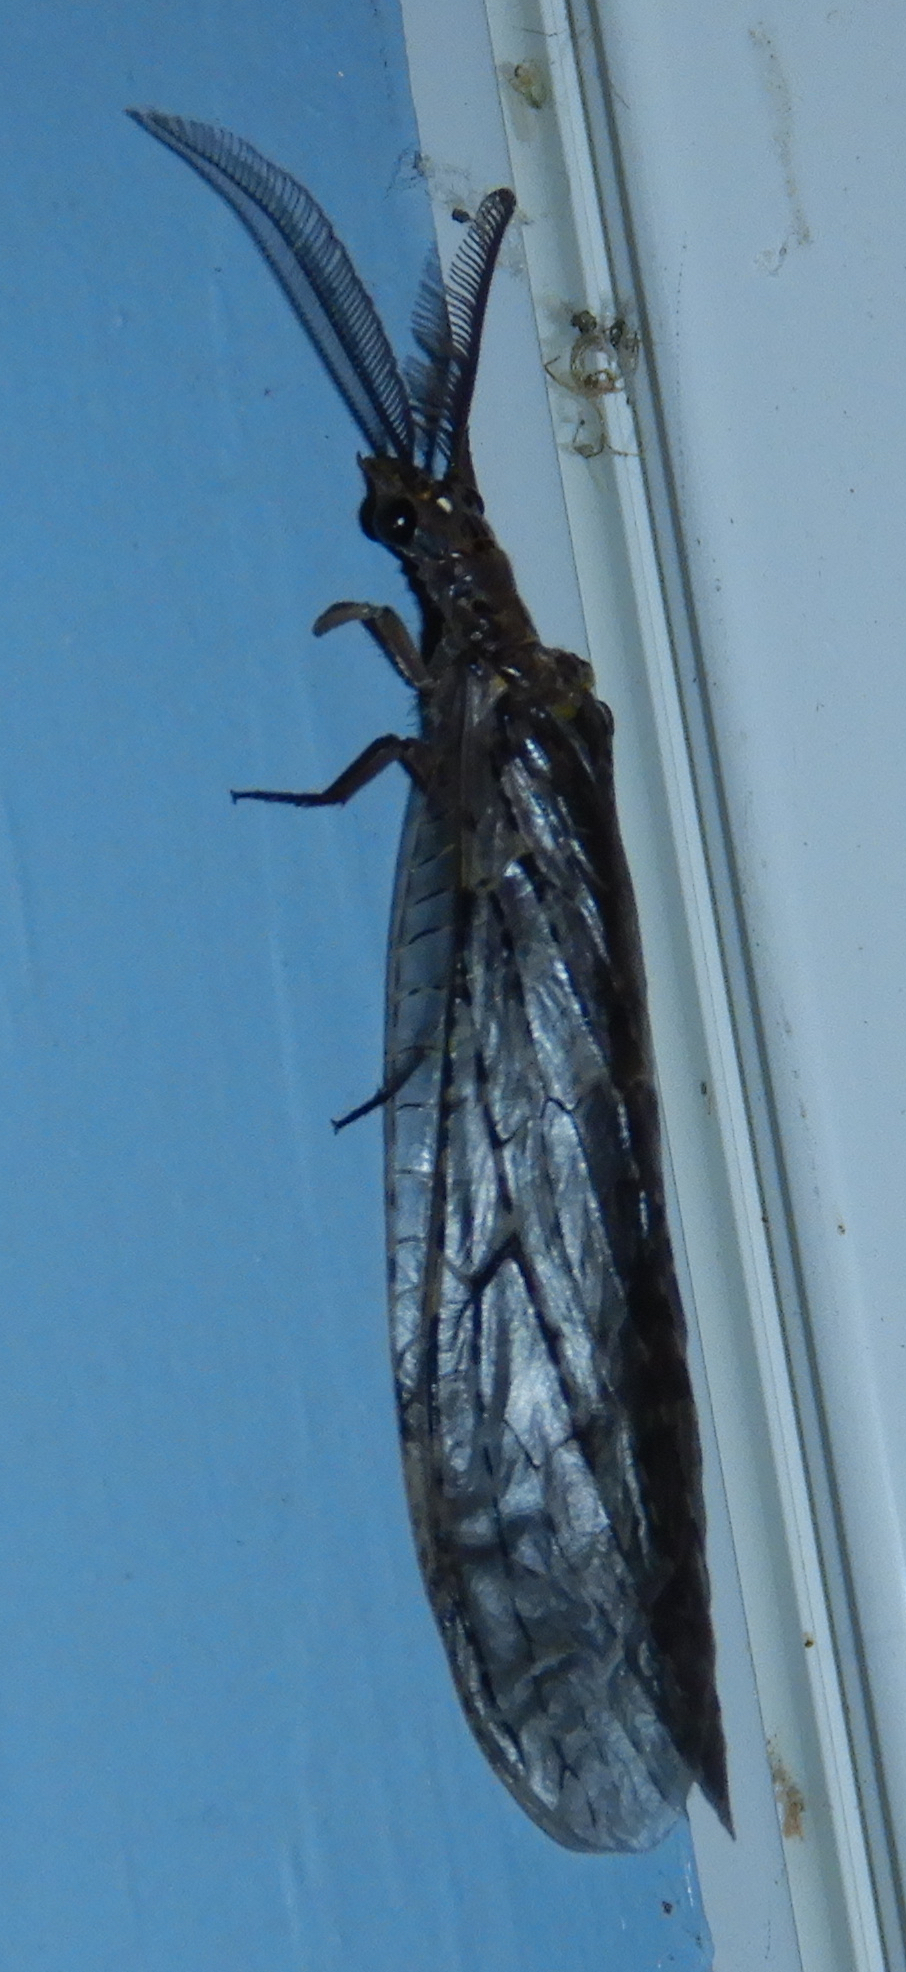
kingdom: Animalia
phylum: Arthropoda
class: Insecta
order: Megaloptera
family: Corydalidae
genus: Chauliodes
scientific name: Chauliodes rastricornis
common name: Spring fishfly
